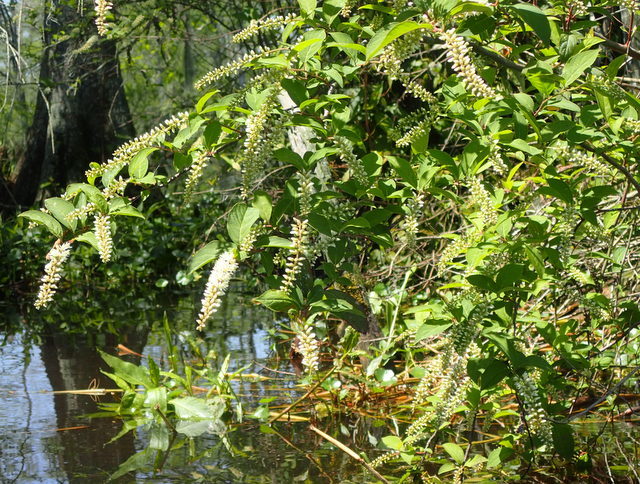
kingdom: Plantae
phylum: Tracheophyta
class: Magnoliopsida
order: Saxifragales
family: Iteaceae
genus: Itea
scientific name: Itea virginica
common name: Sweetspire
